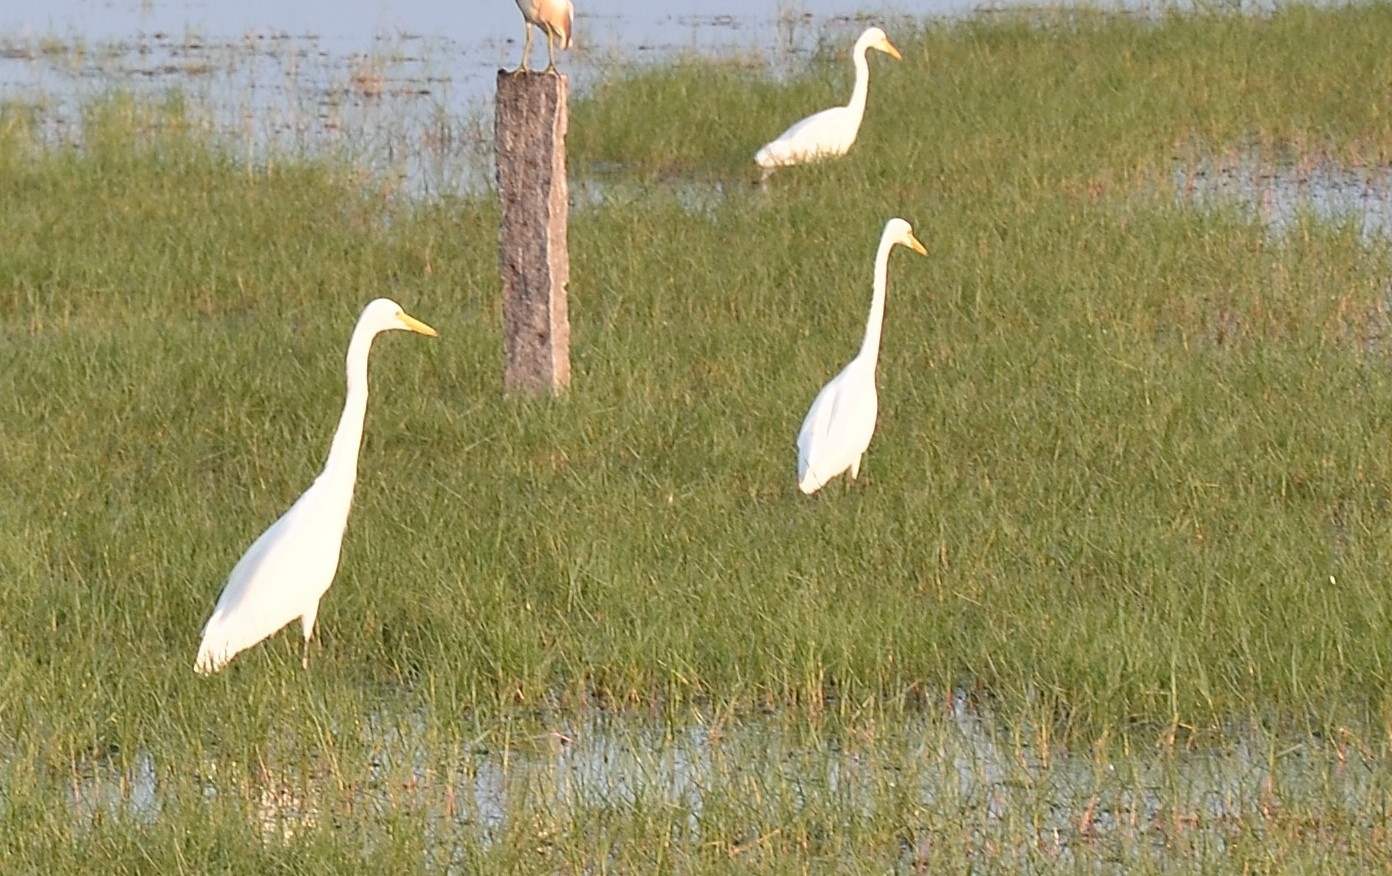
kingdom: Animalia
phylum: Chordata
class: Aves
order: Pelecaniformes
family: Ardeidae
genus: Egretta
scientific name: Egretta intermedia
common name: Intermediate egret
